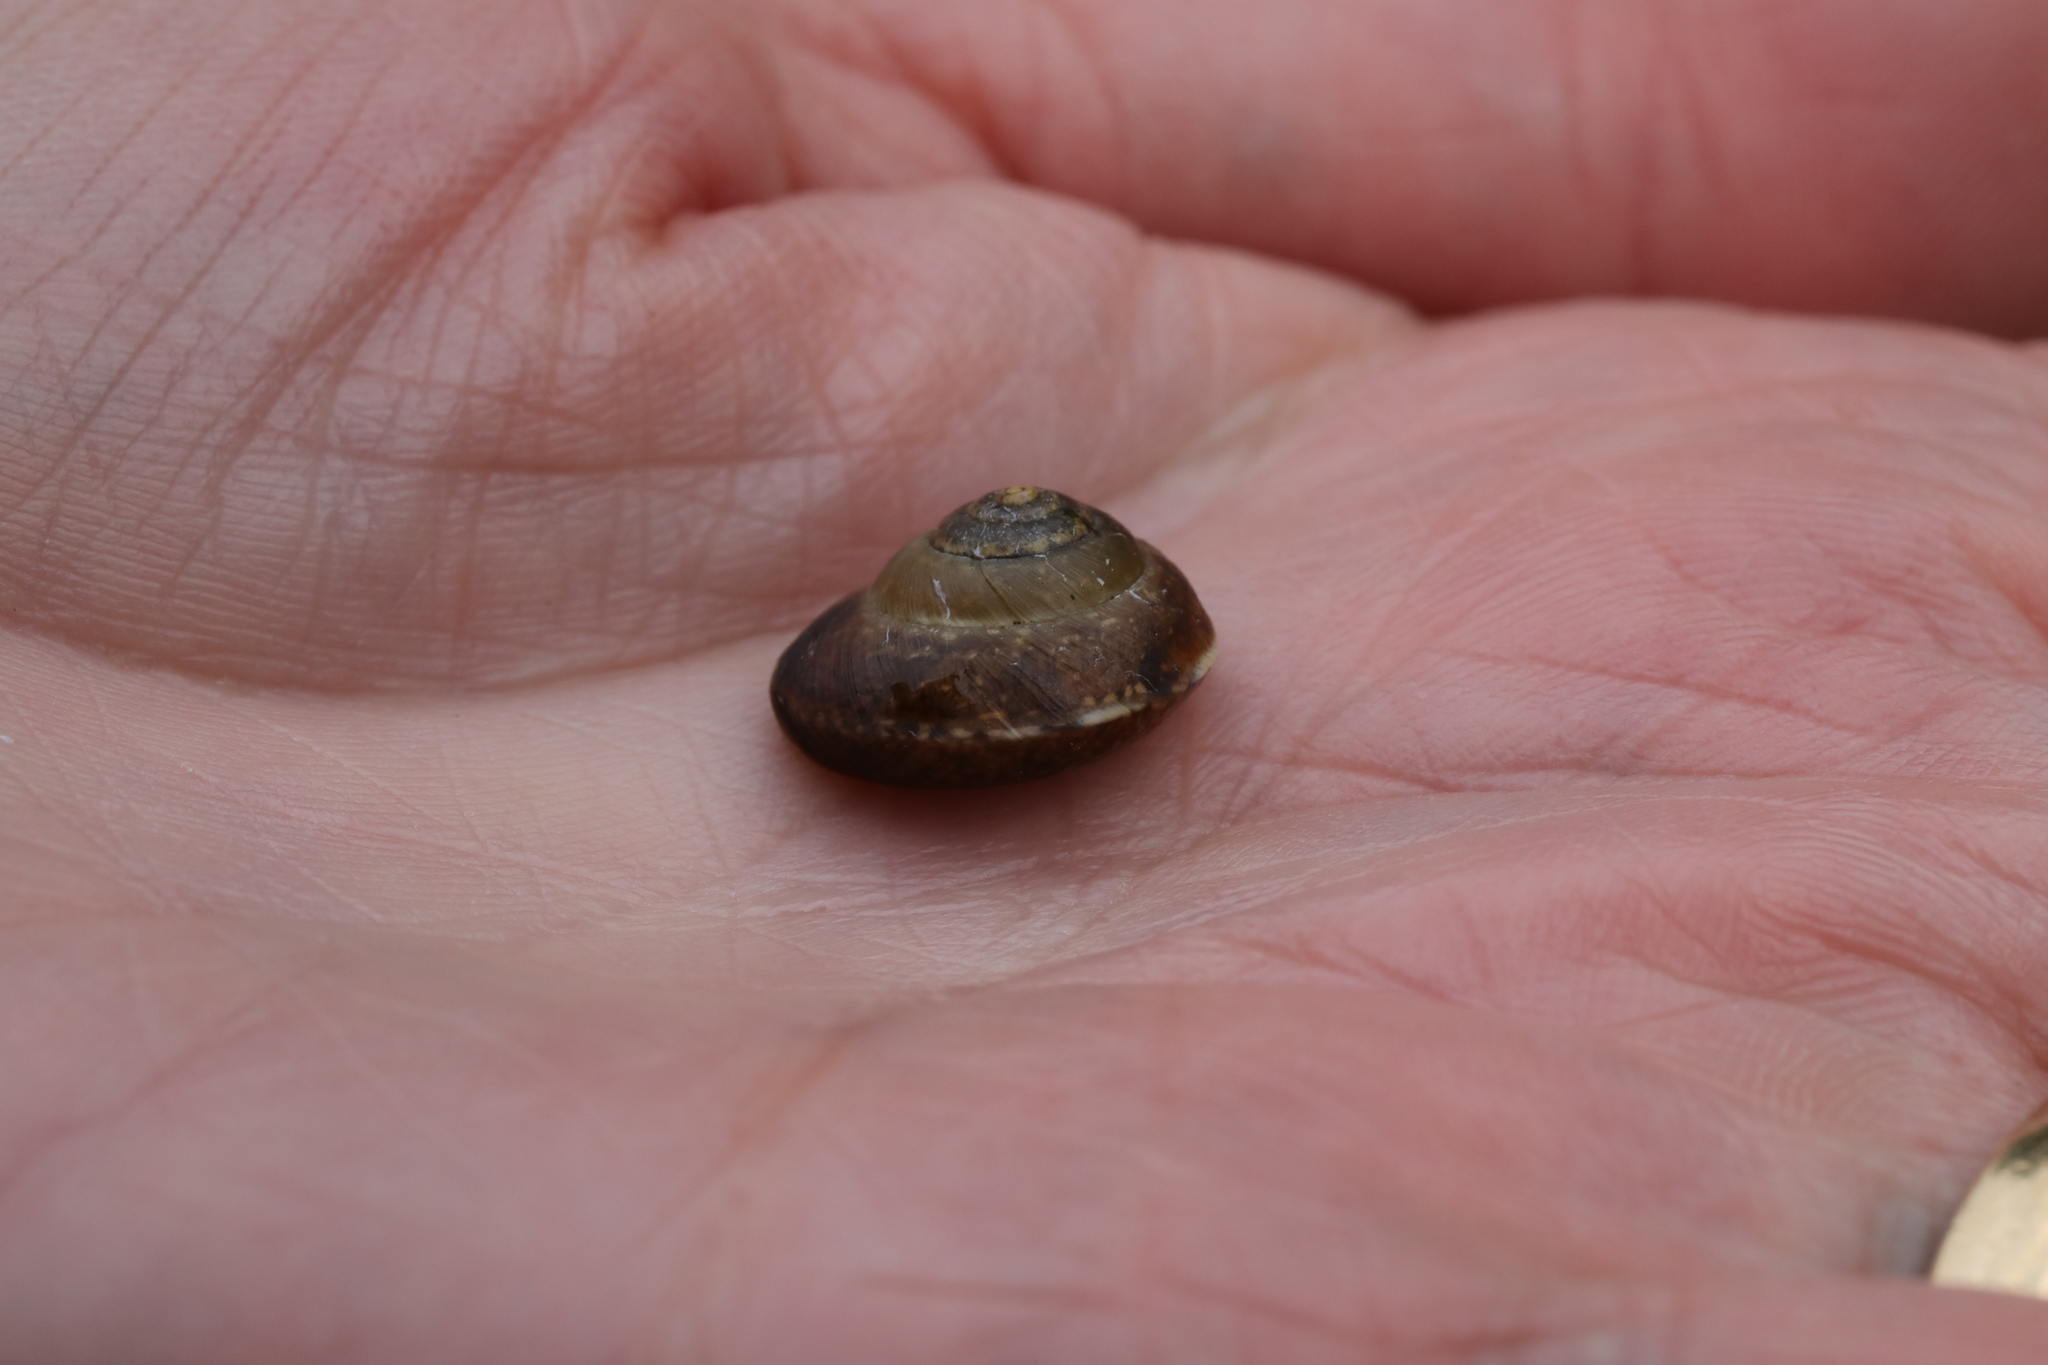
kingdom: Animalia
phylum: Mollusca
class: Gastropoda
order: Stylommatophora
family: Hygromiidae
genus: Hygromia
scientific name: Hygromia cinctella
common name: Girdled snail
